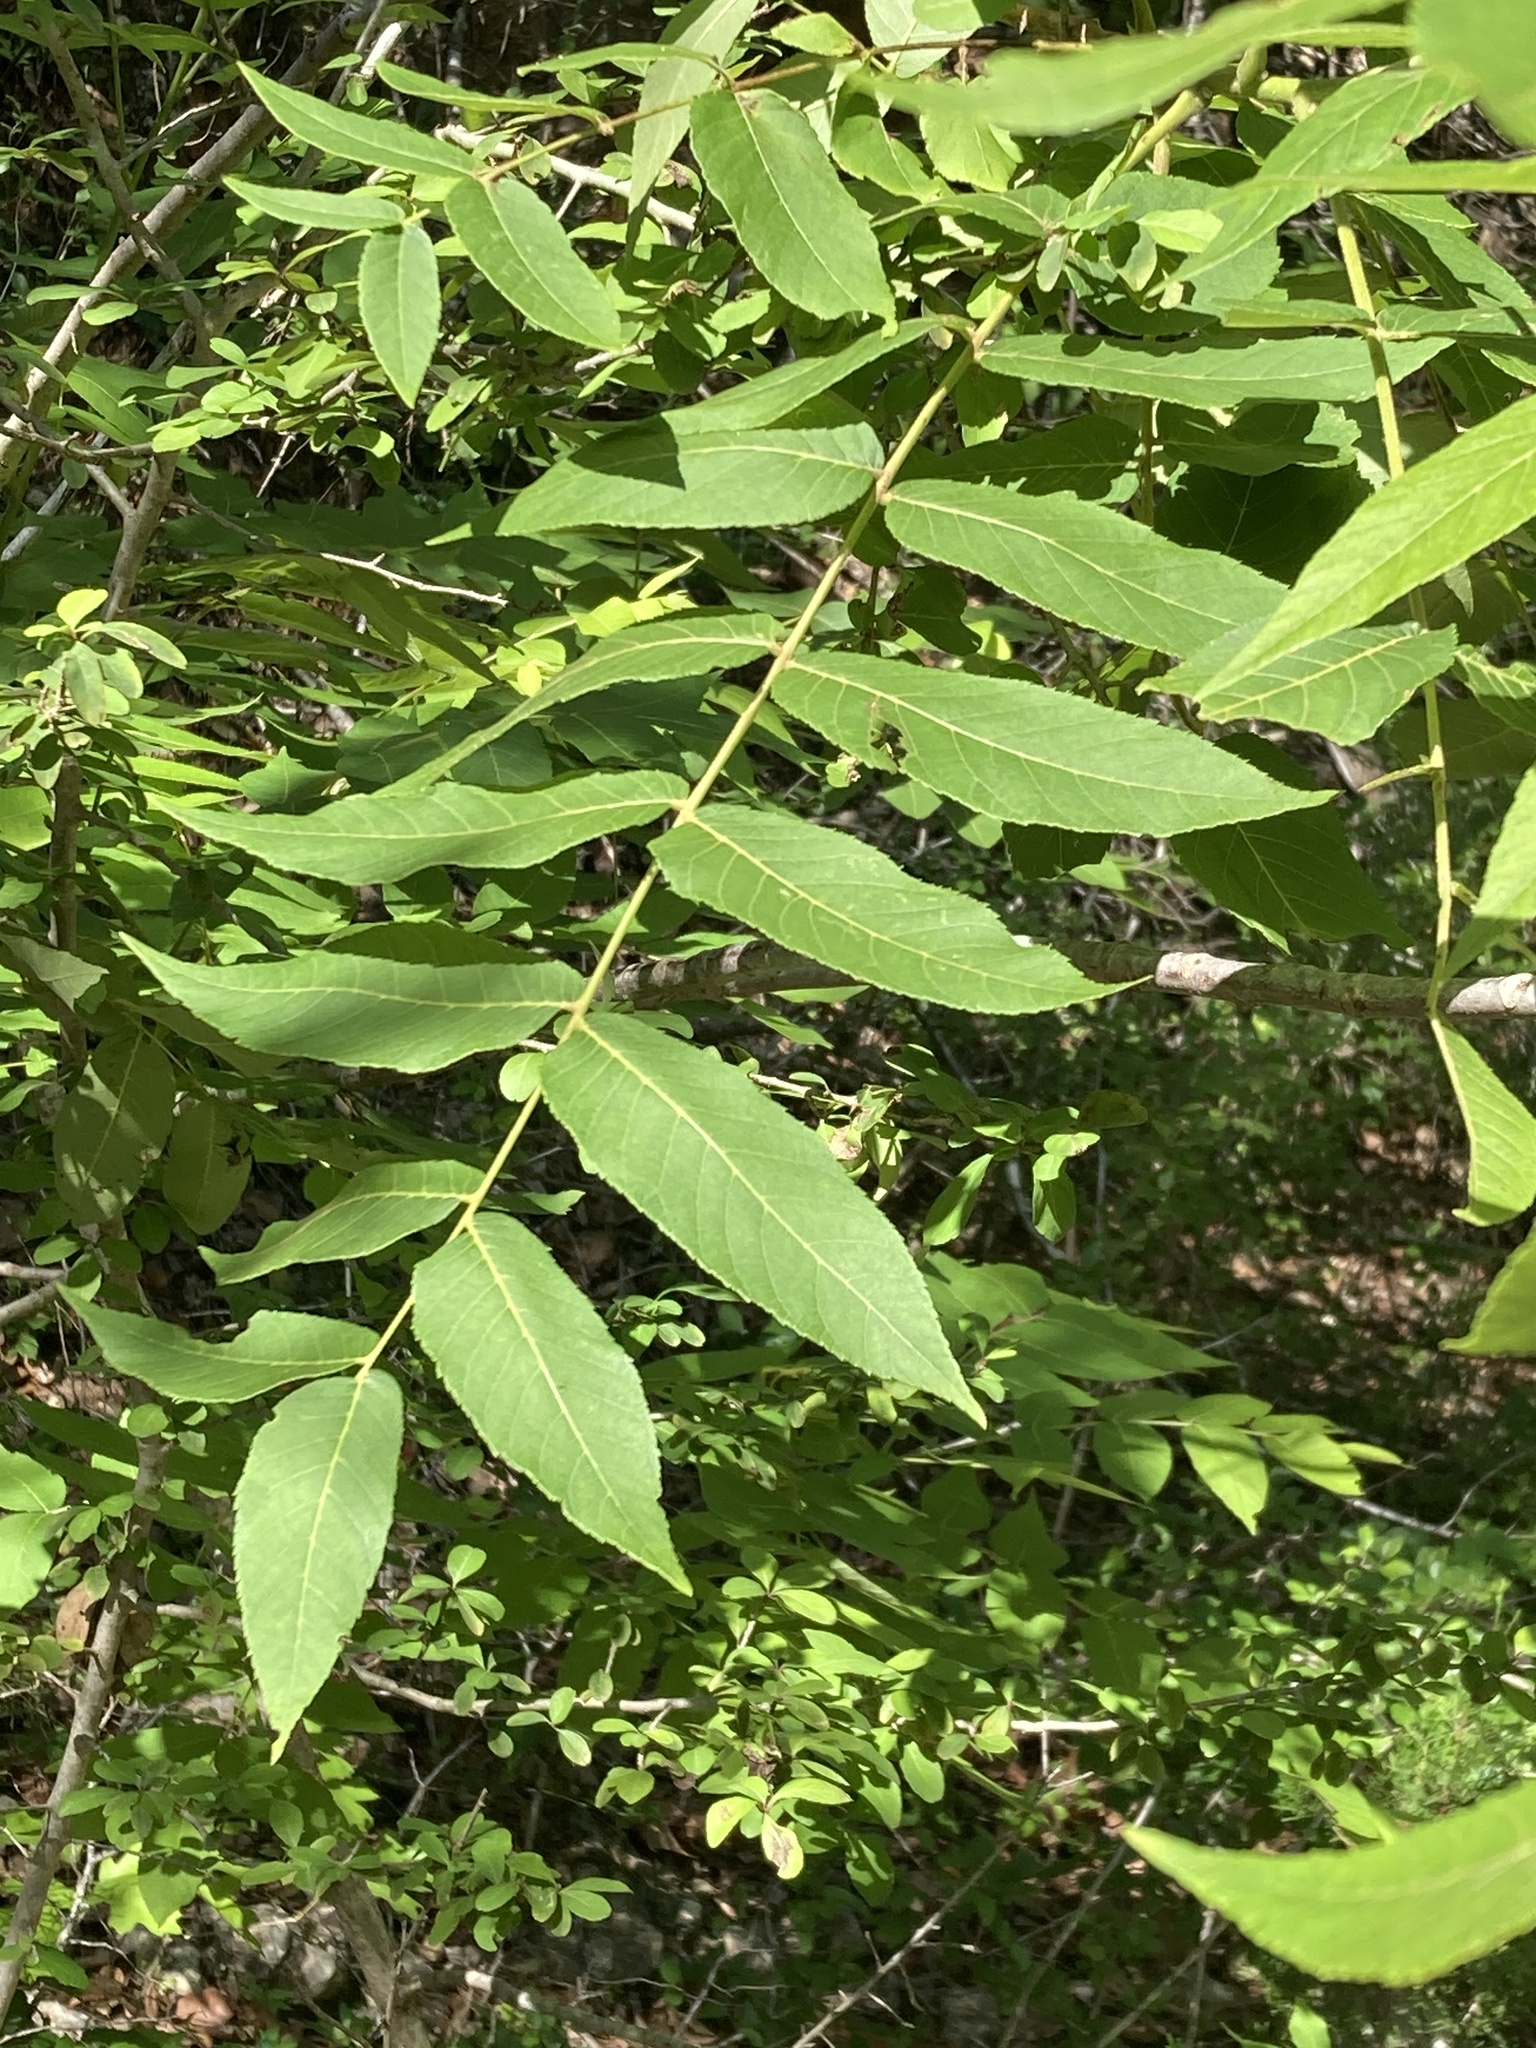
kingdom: Plantae
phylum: Tracheophyta
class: Magnoliopsida
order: Sapindales
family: Sapindaceae
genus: Sapindus
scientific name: Sapindus drummondii
